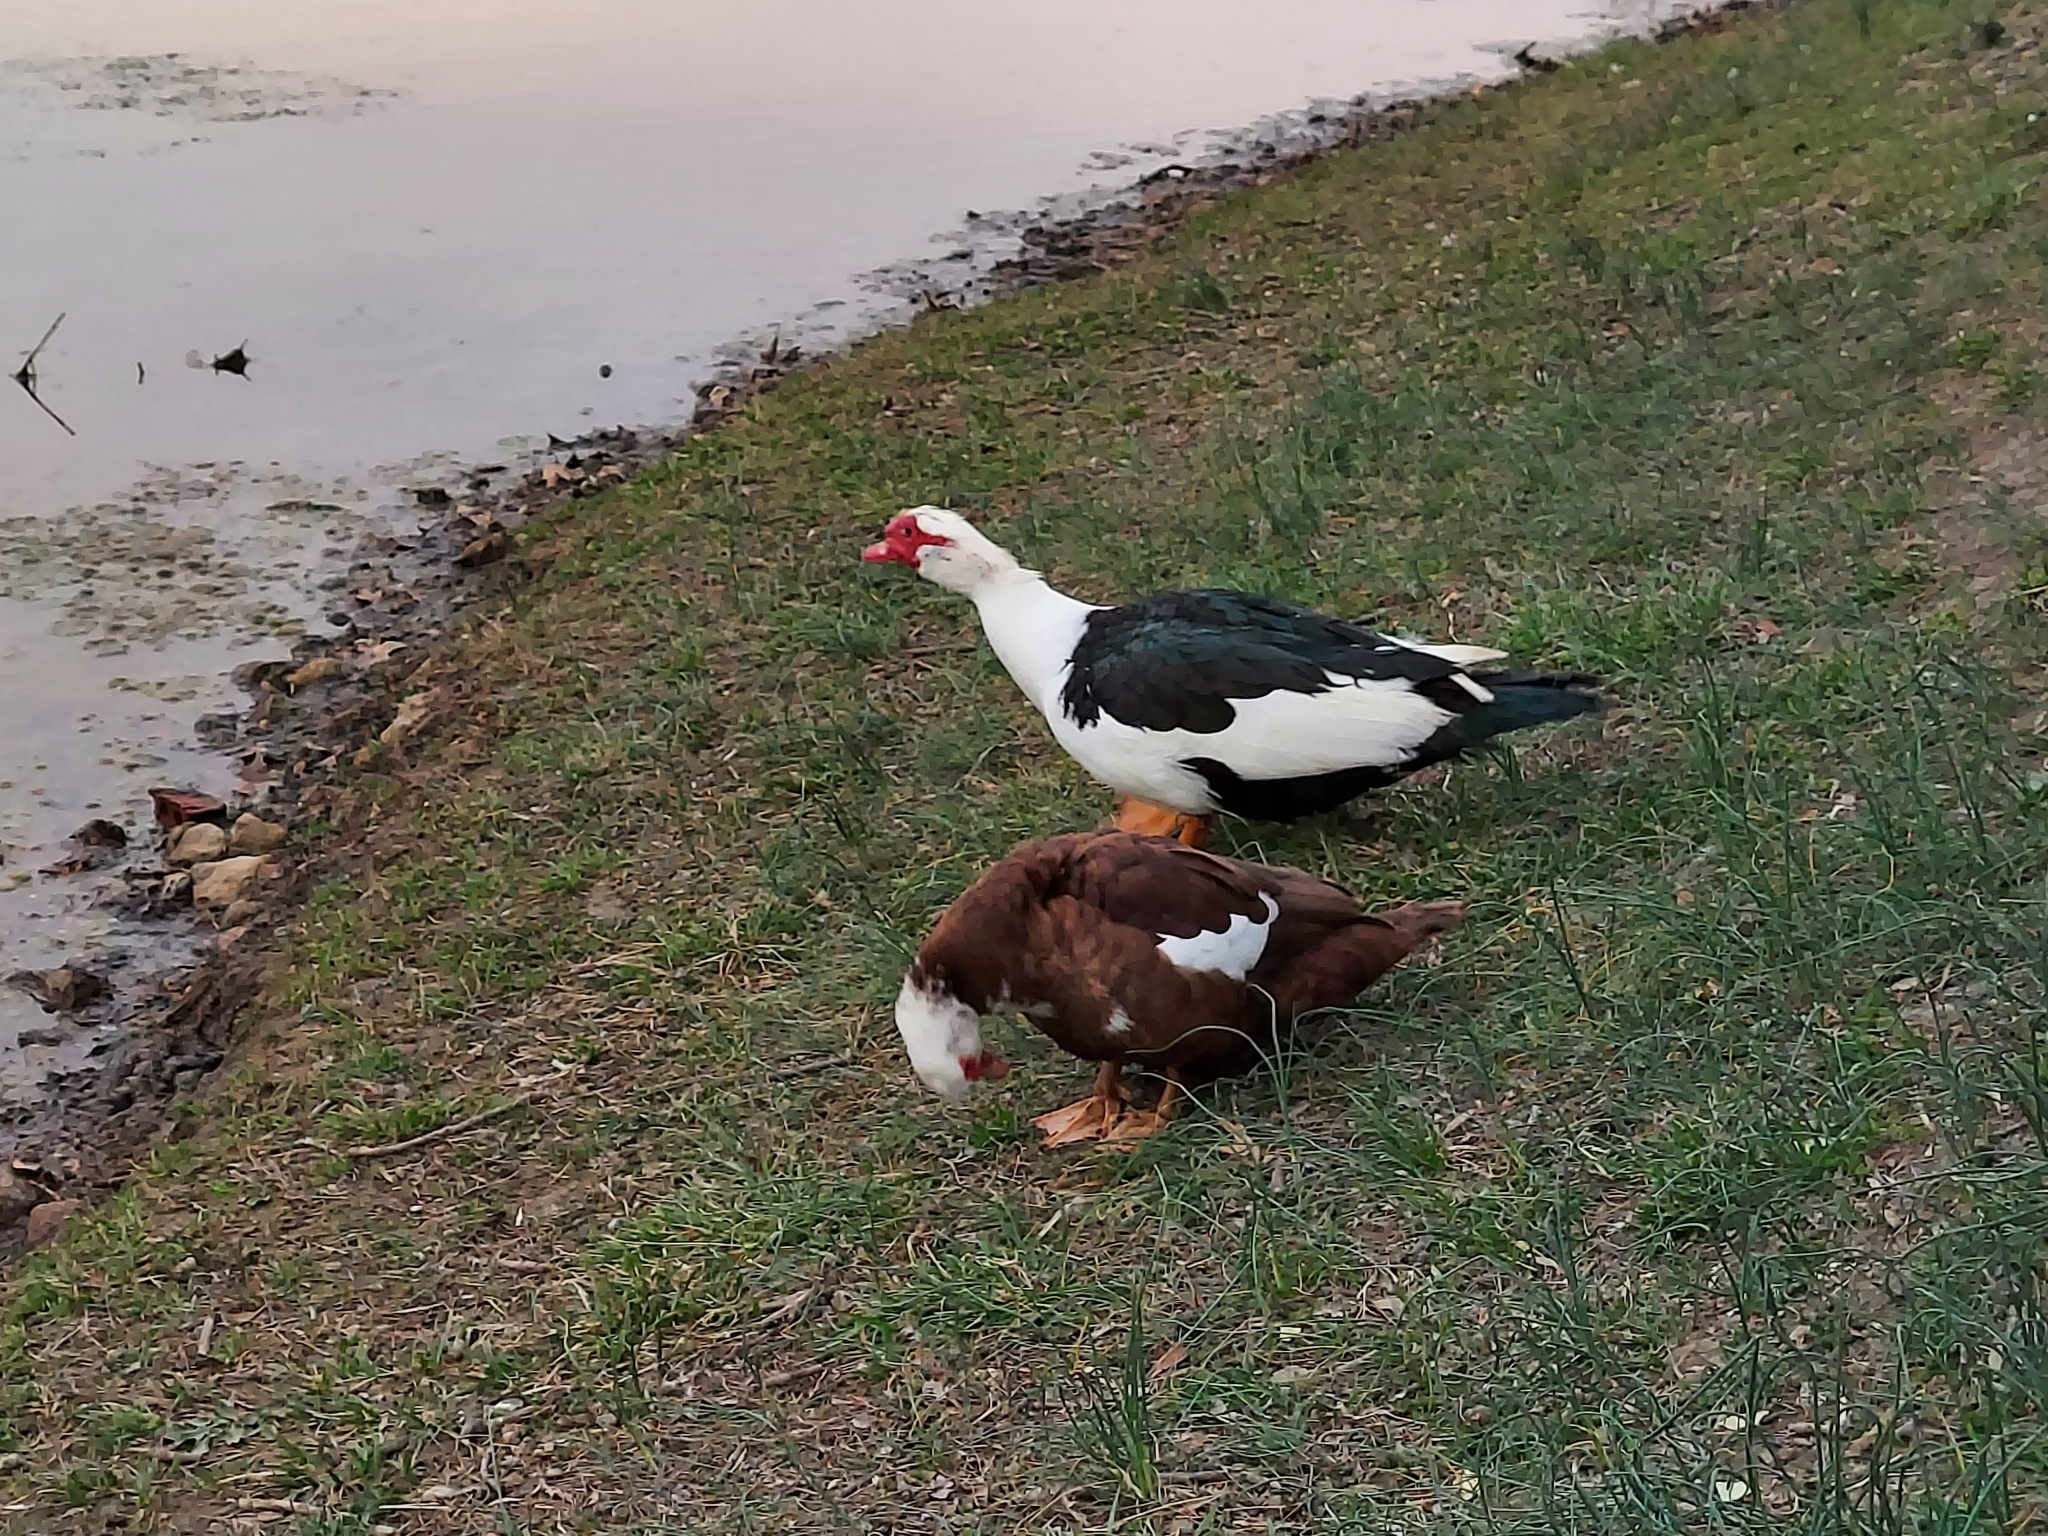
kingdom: Animalia
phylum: Chordata
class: Aves
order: Anseriformes
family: Anatidae
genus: Cairina
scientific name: Cairina moschata
